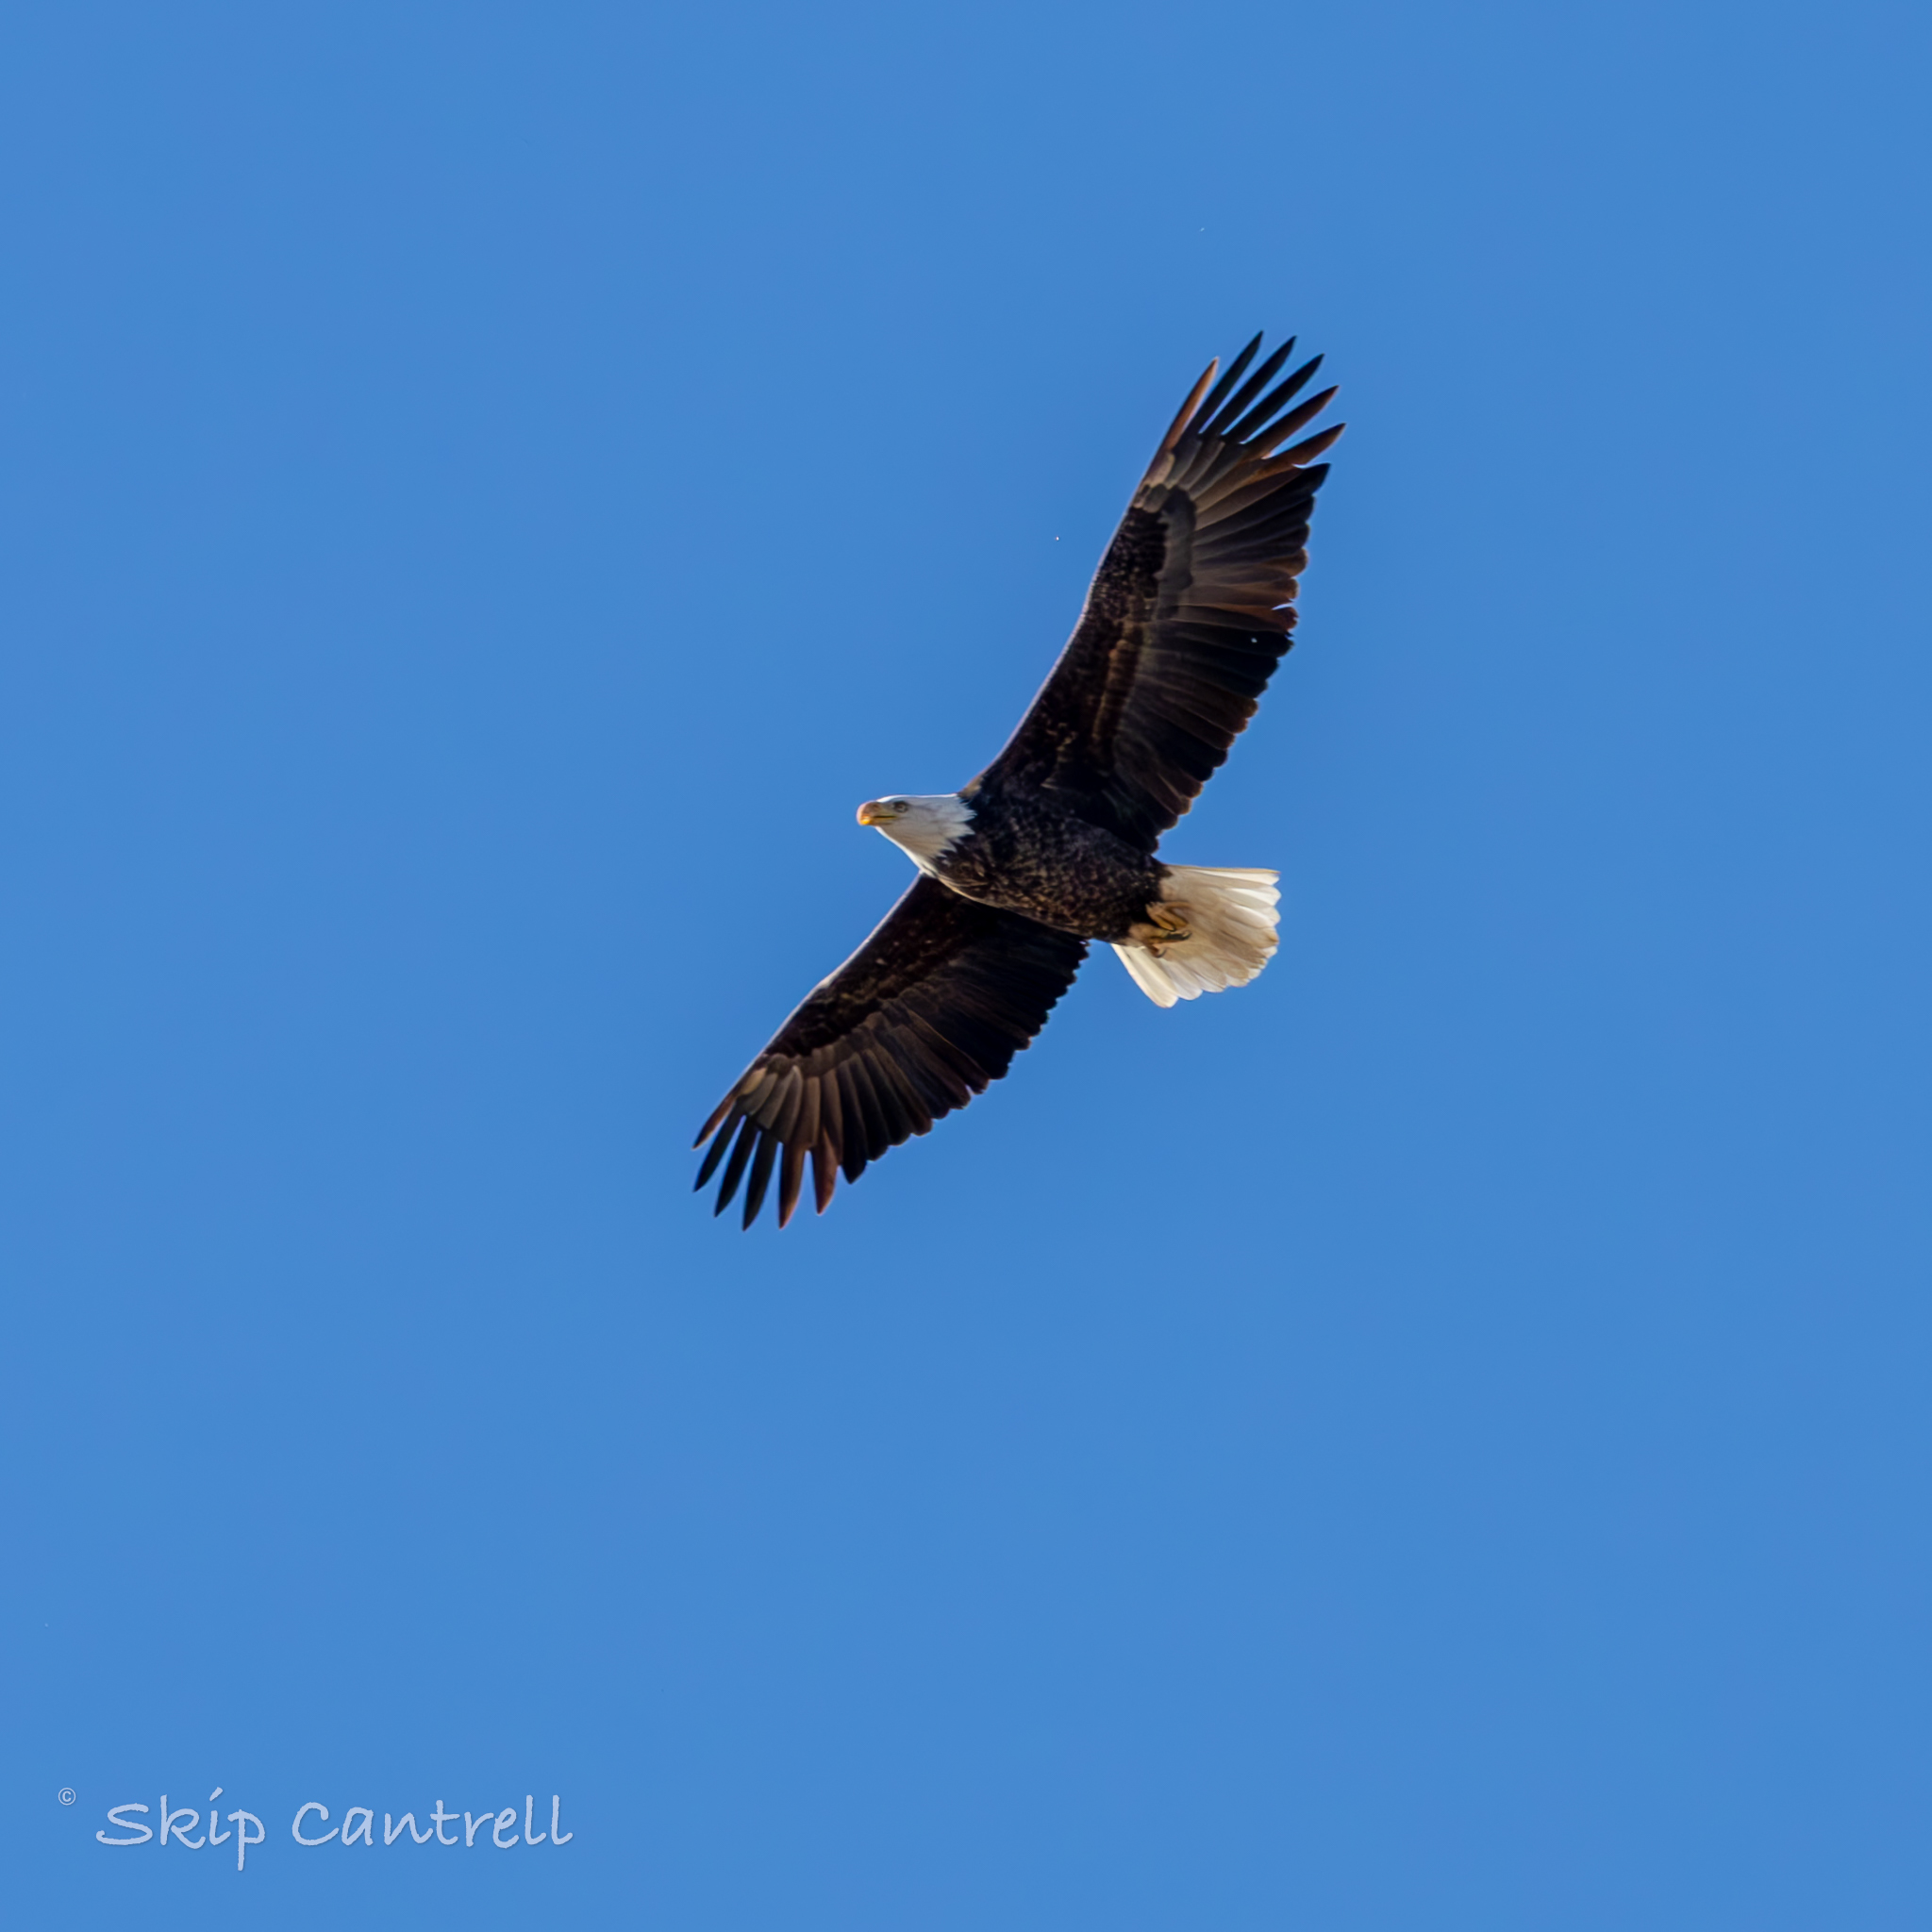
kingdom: Animalia
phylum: Chordata
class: Aves
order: Accipitriformes
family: Accipitridae
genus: Haliaeetus
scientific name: Haliaeetus leucocephalus
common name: Bald eagle
